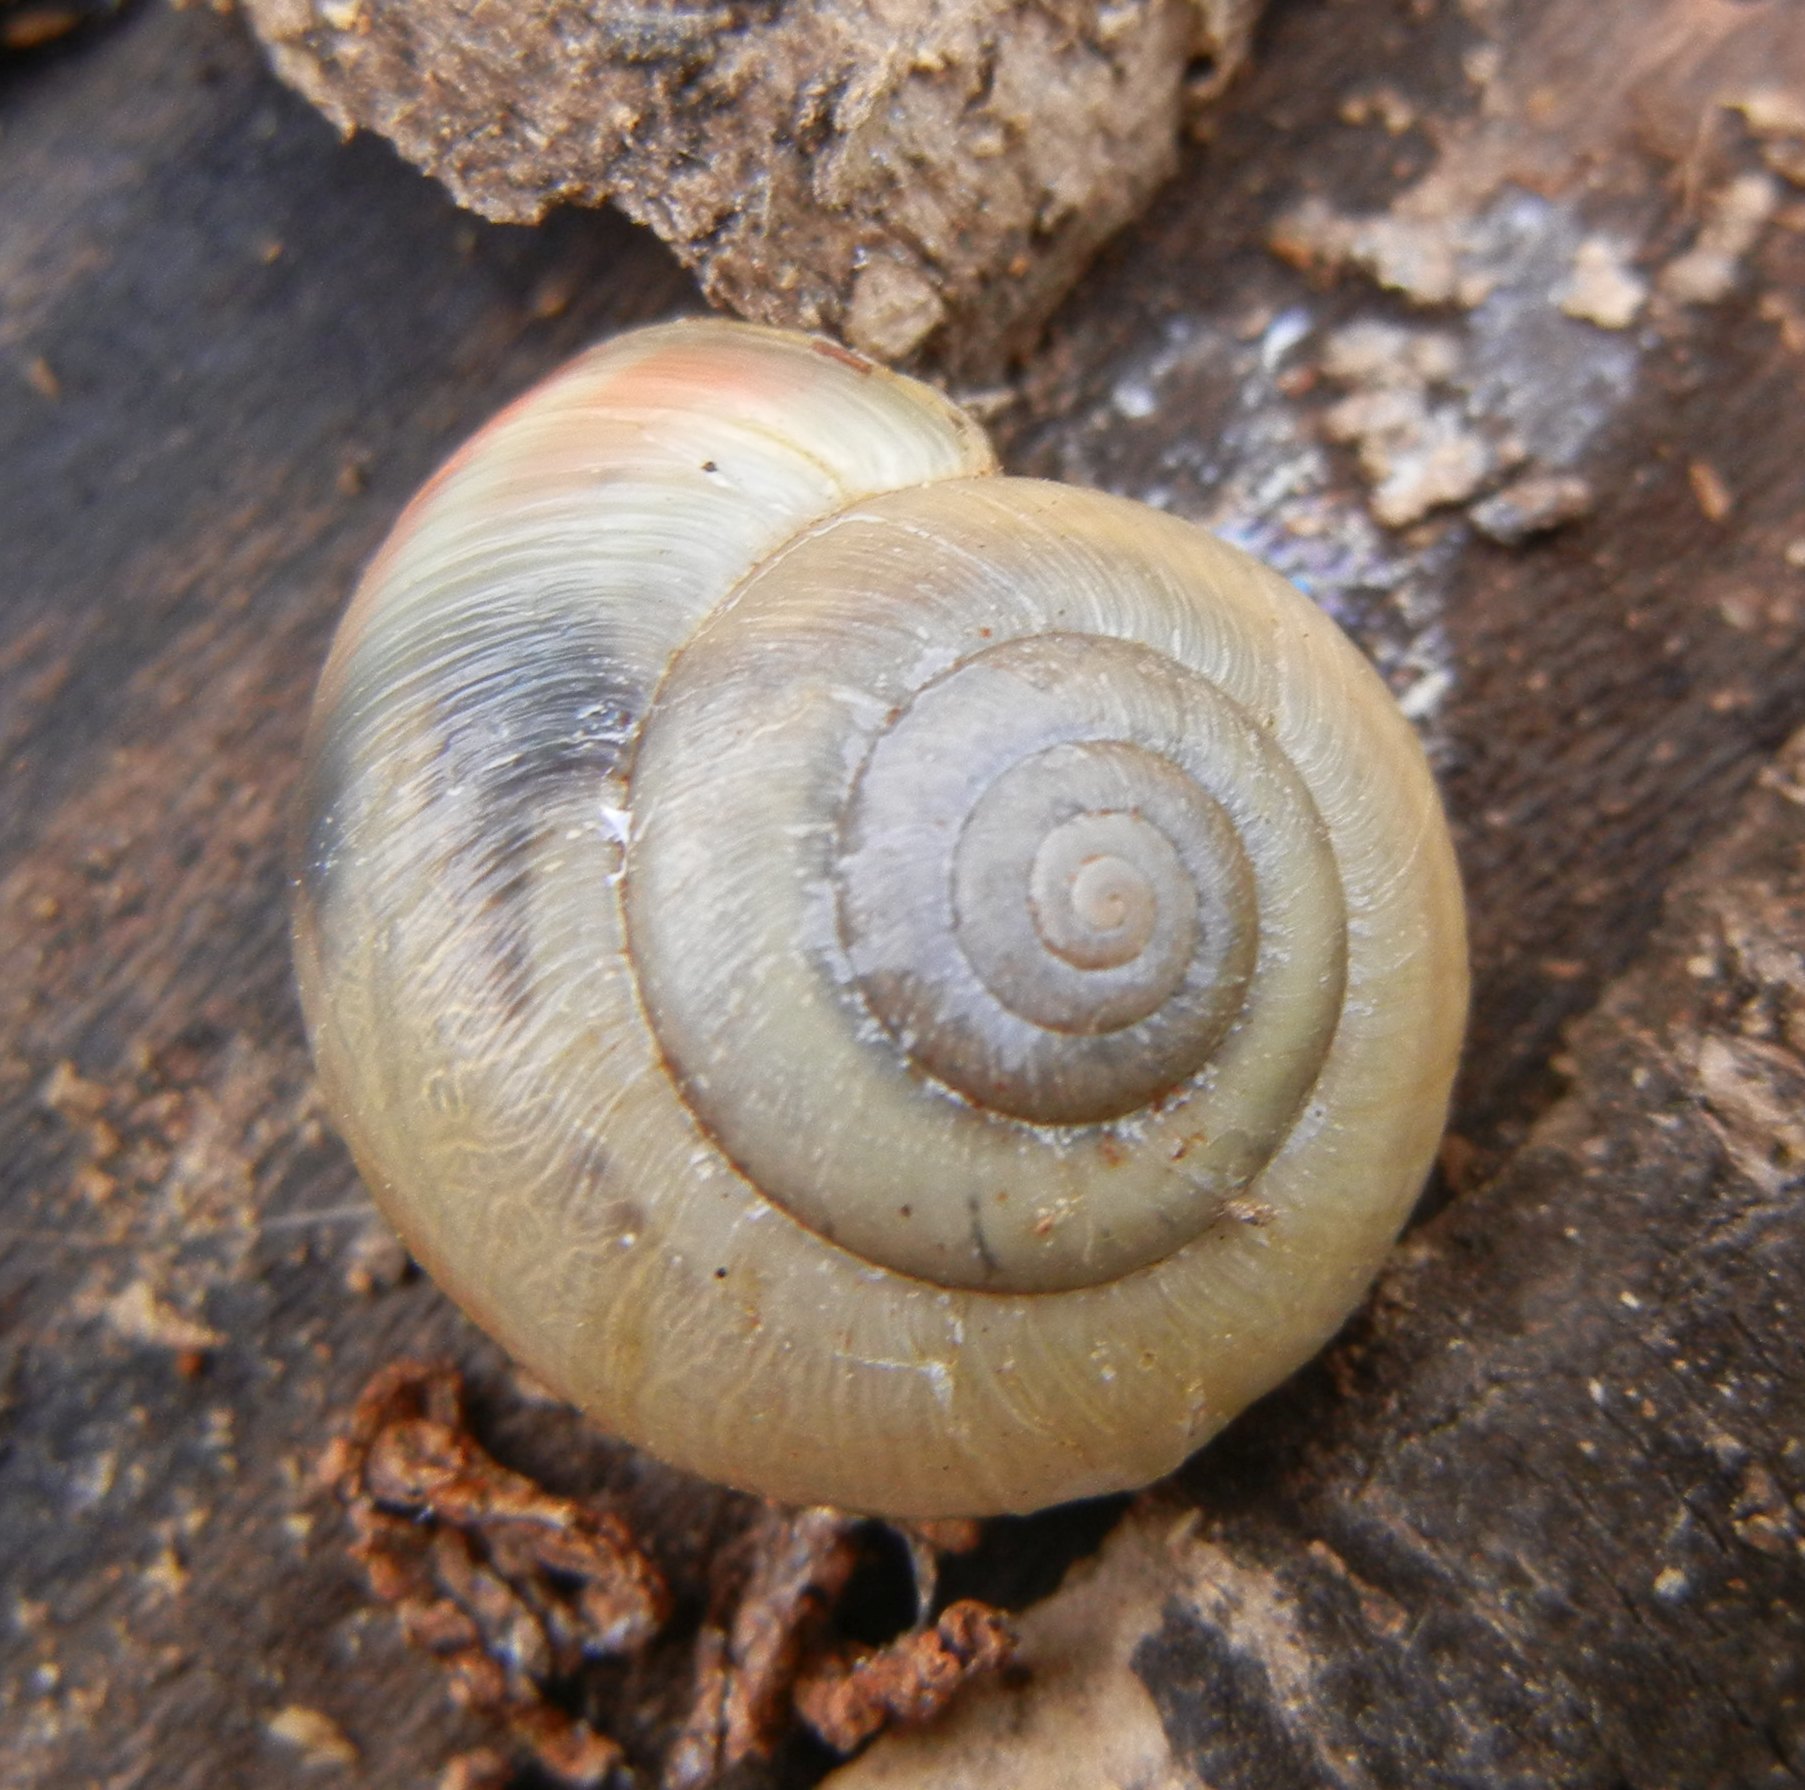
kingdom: Animalia
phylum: Mollusca
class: Gastropoda
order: Stylommatophora
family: Hygromiidae
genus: Monacha
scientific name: Monacha cantiana
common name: Kentish snail
